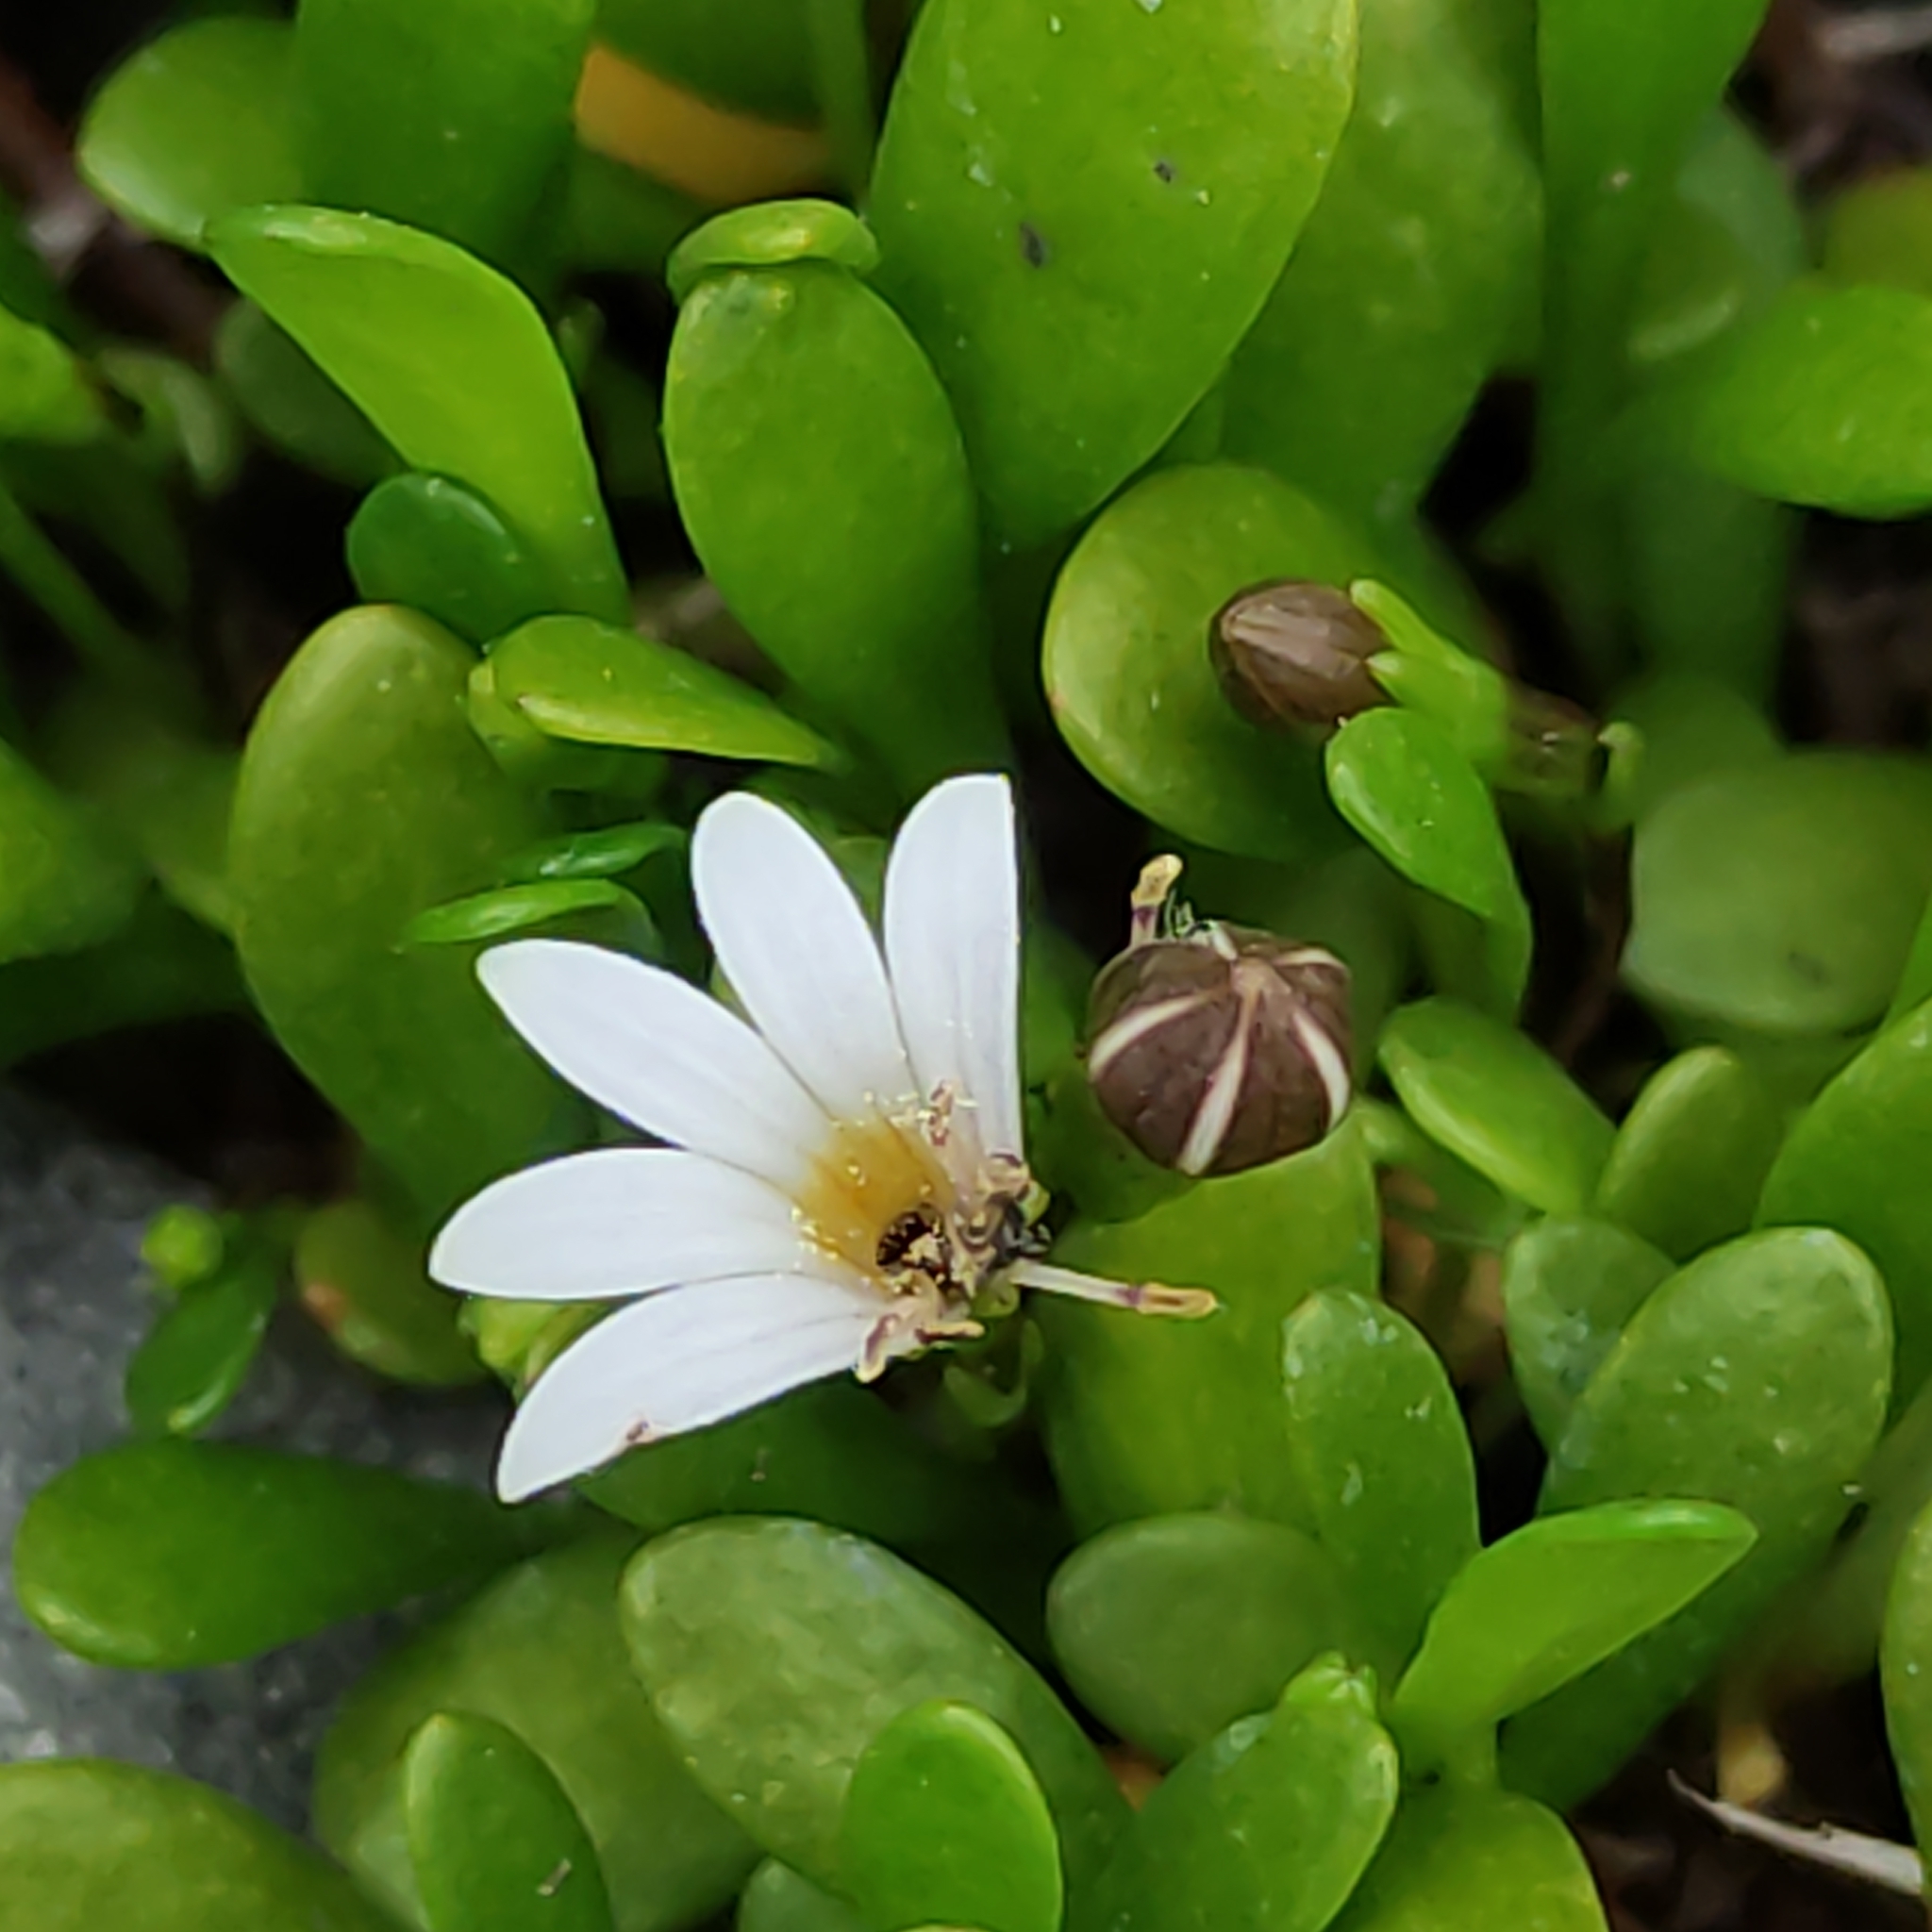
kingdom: Plantae
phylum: Tracheophyta
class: Magnoliopsida
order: Ericales
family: Primulaceae
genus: Samolus
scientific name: Samolus repens
